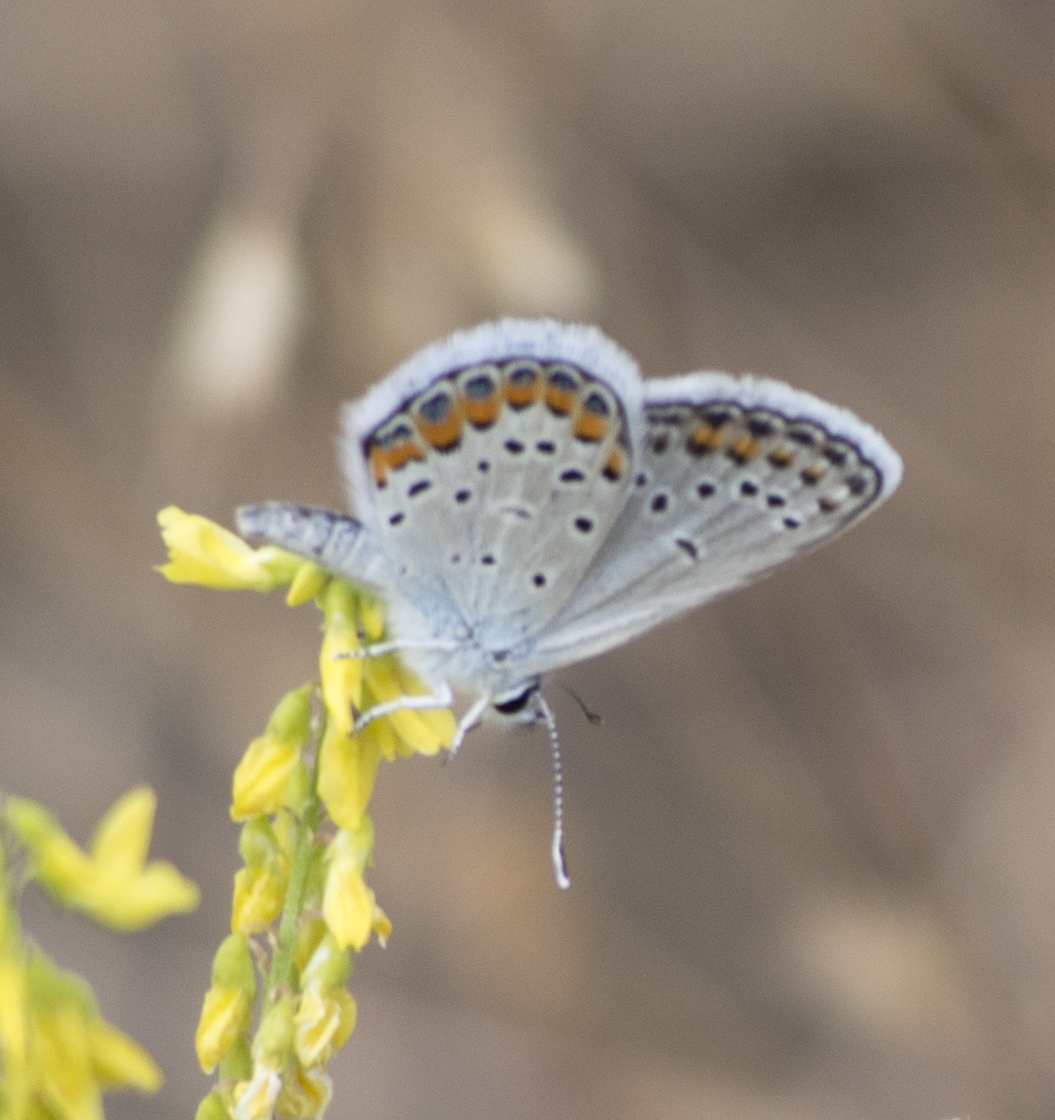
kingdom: Animalia
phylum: Arthropoda
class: Insecta
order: Lepidoptera
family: Lycaenidae
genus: Lycaeides
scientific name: Lycaeides melissa
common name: Melissa blue
